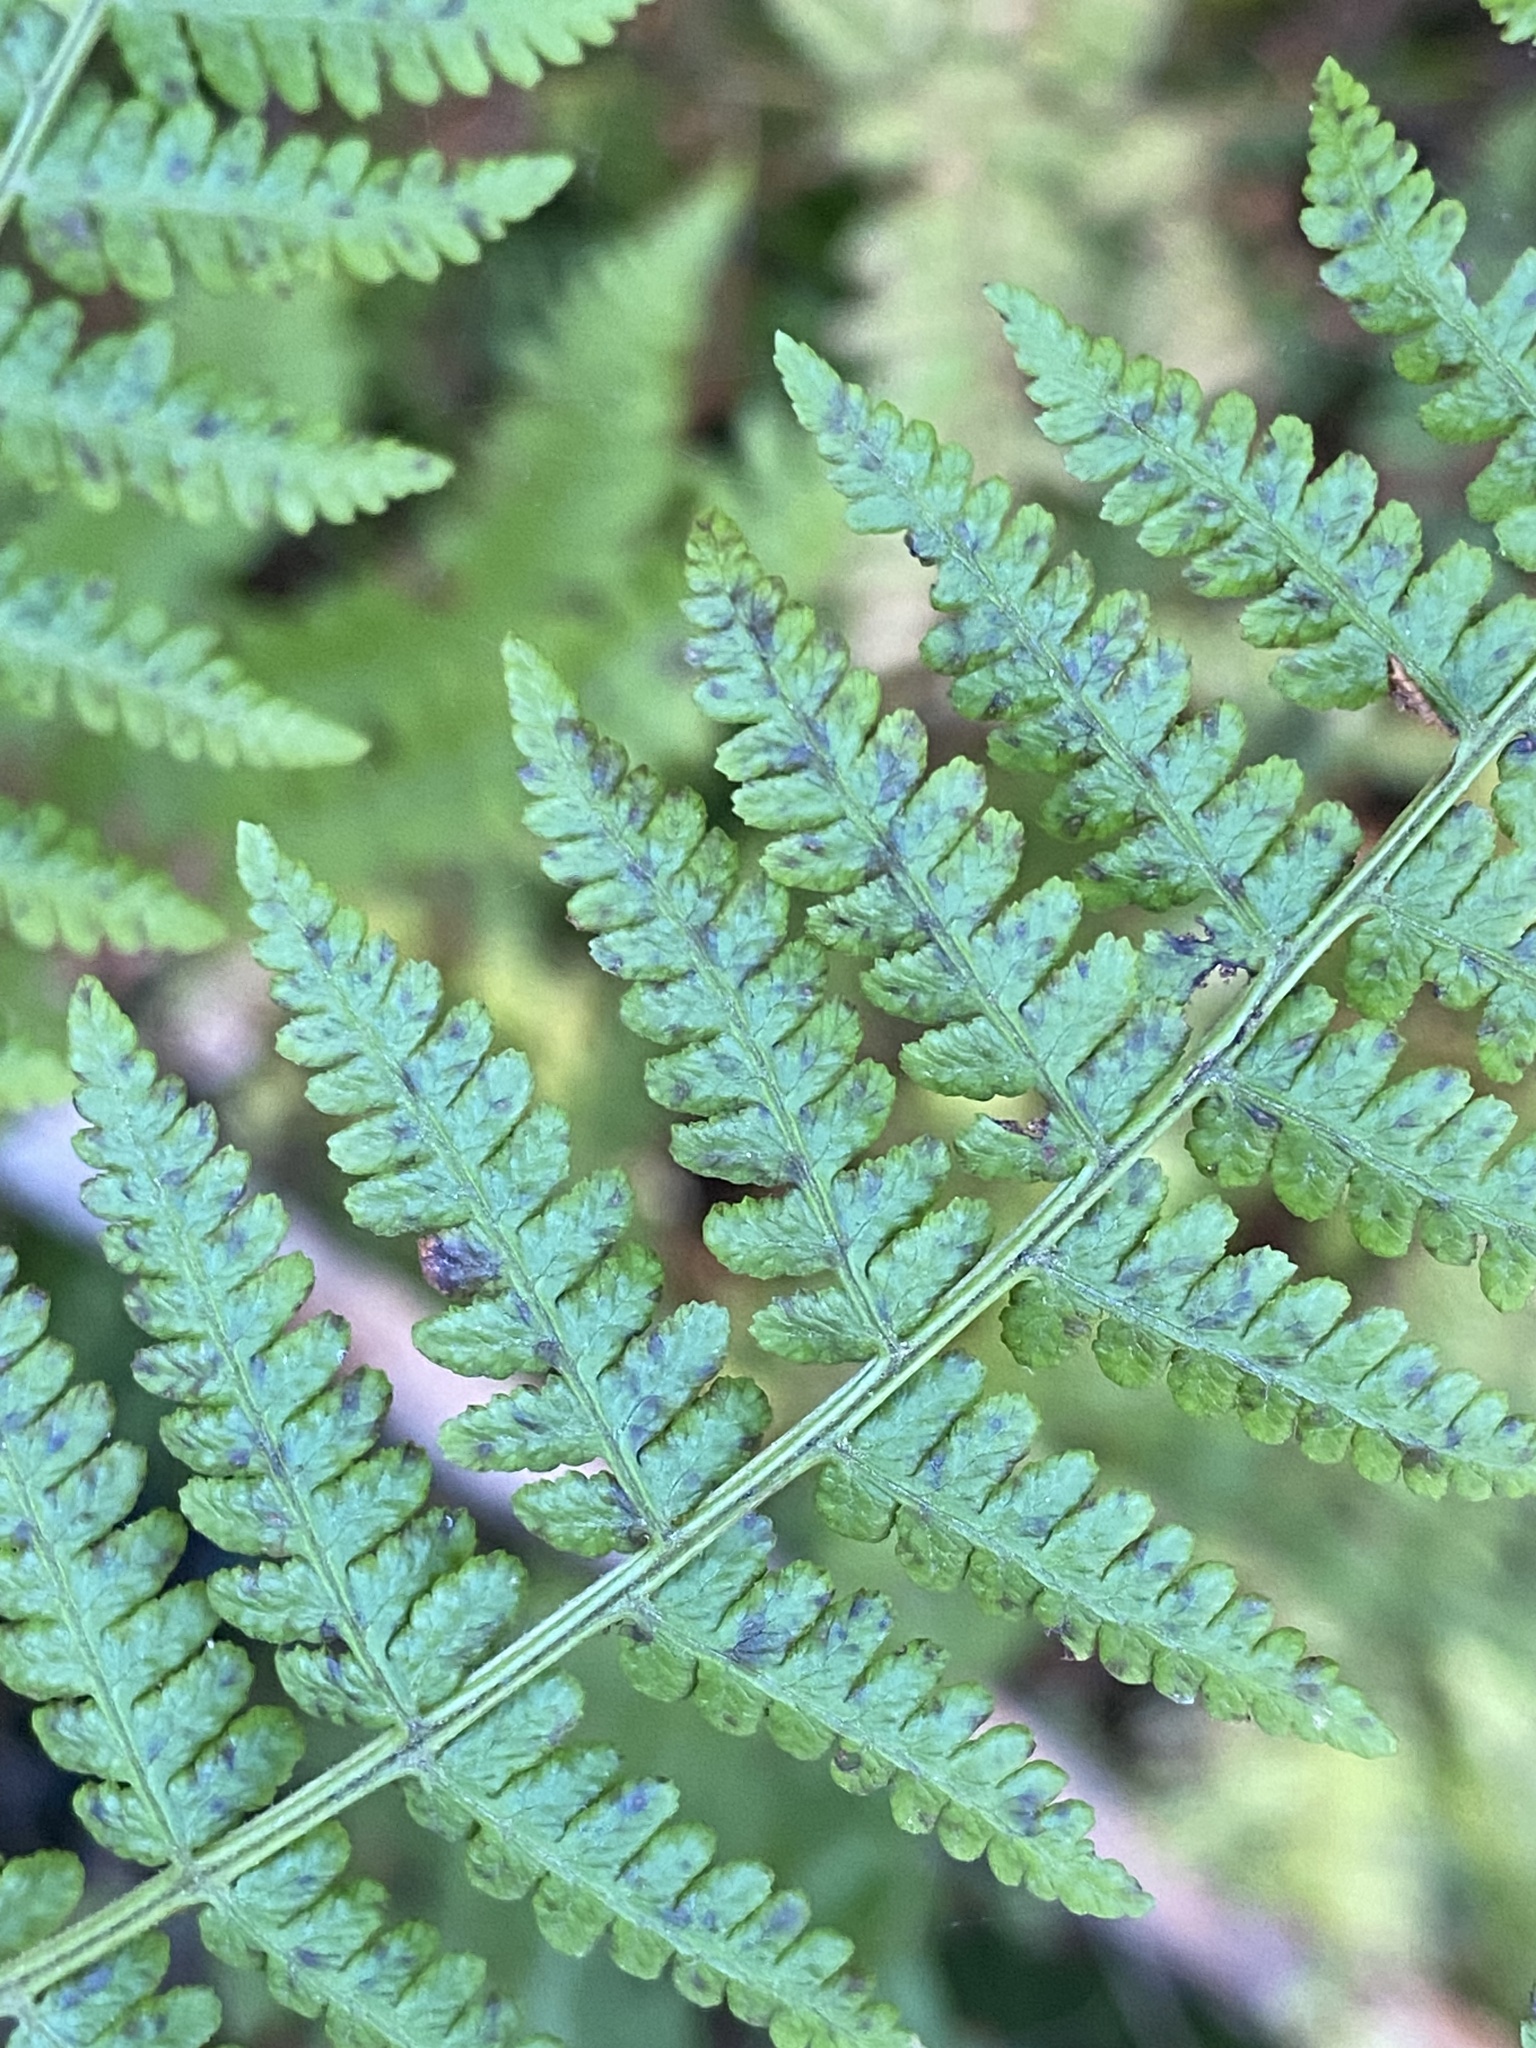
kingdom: Plantae
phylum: Tracheophyta
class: Polypodiopsida
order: Polypodiales
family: Athyriaceae
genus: Athyrium
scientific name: Athyrium cyclosorum
